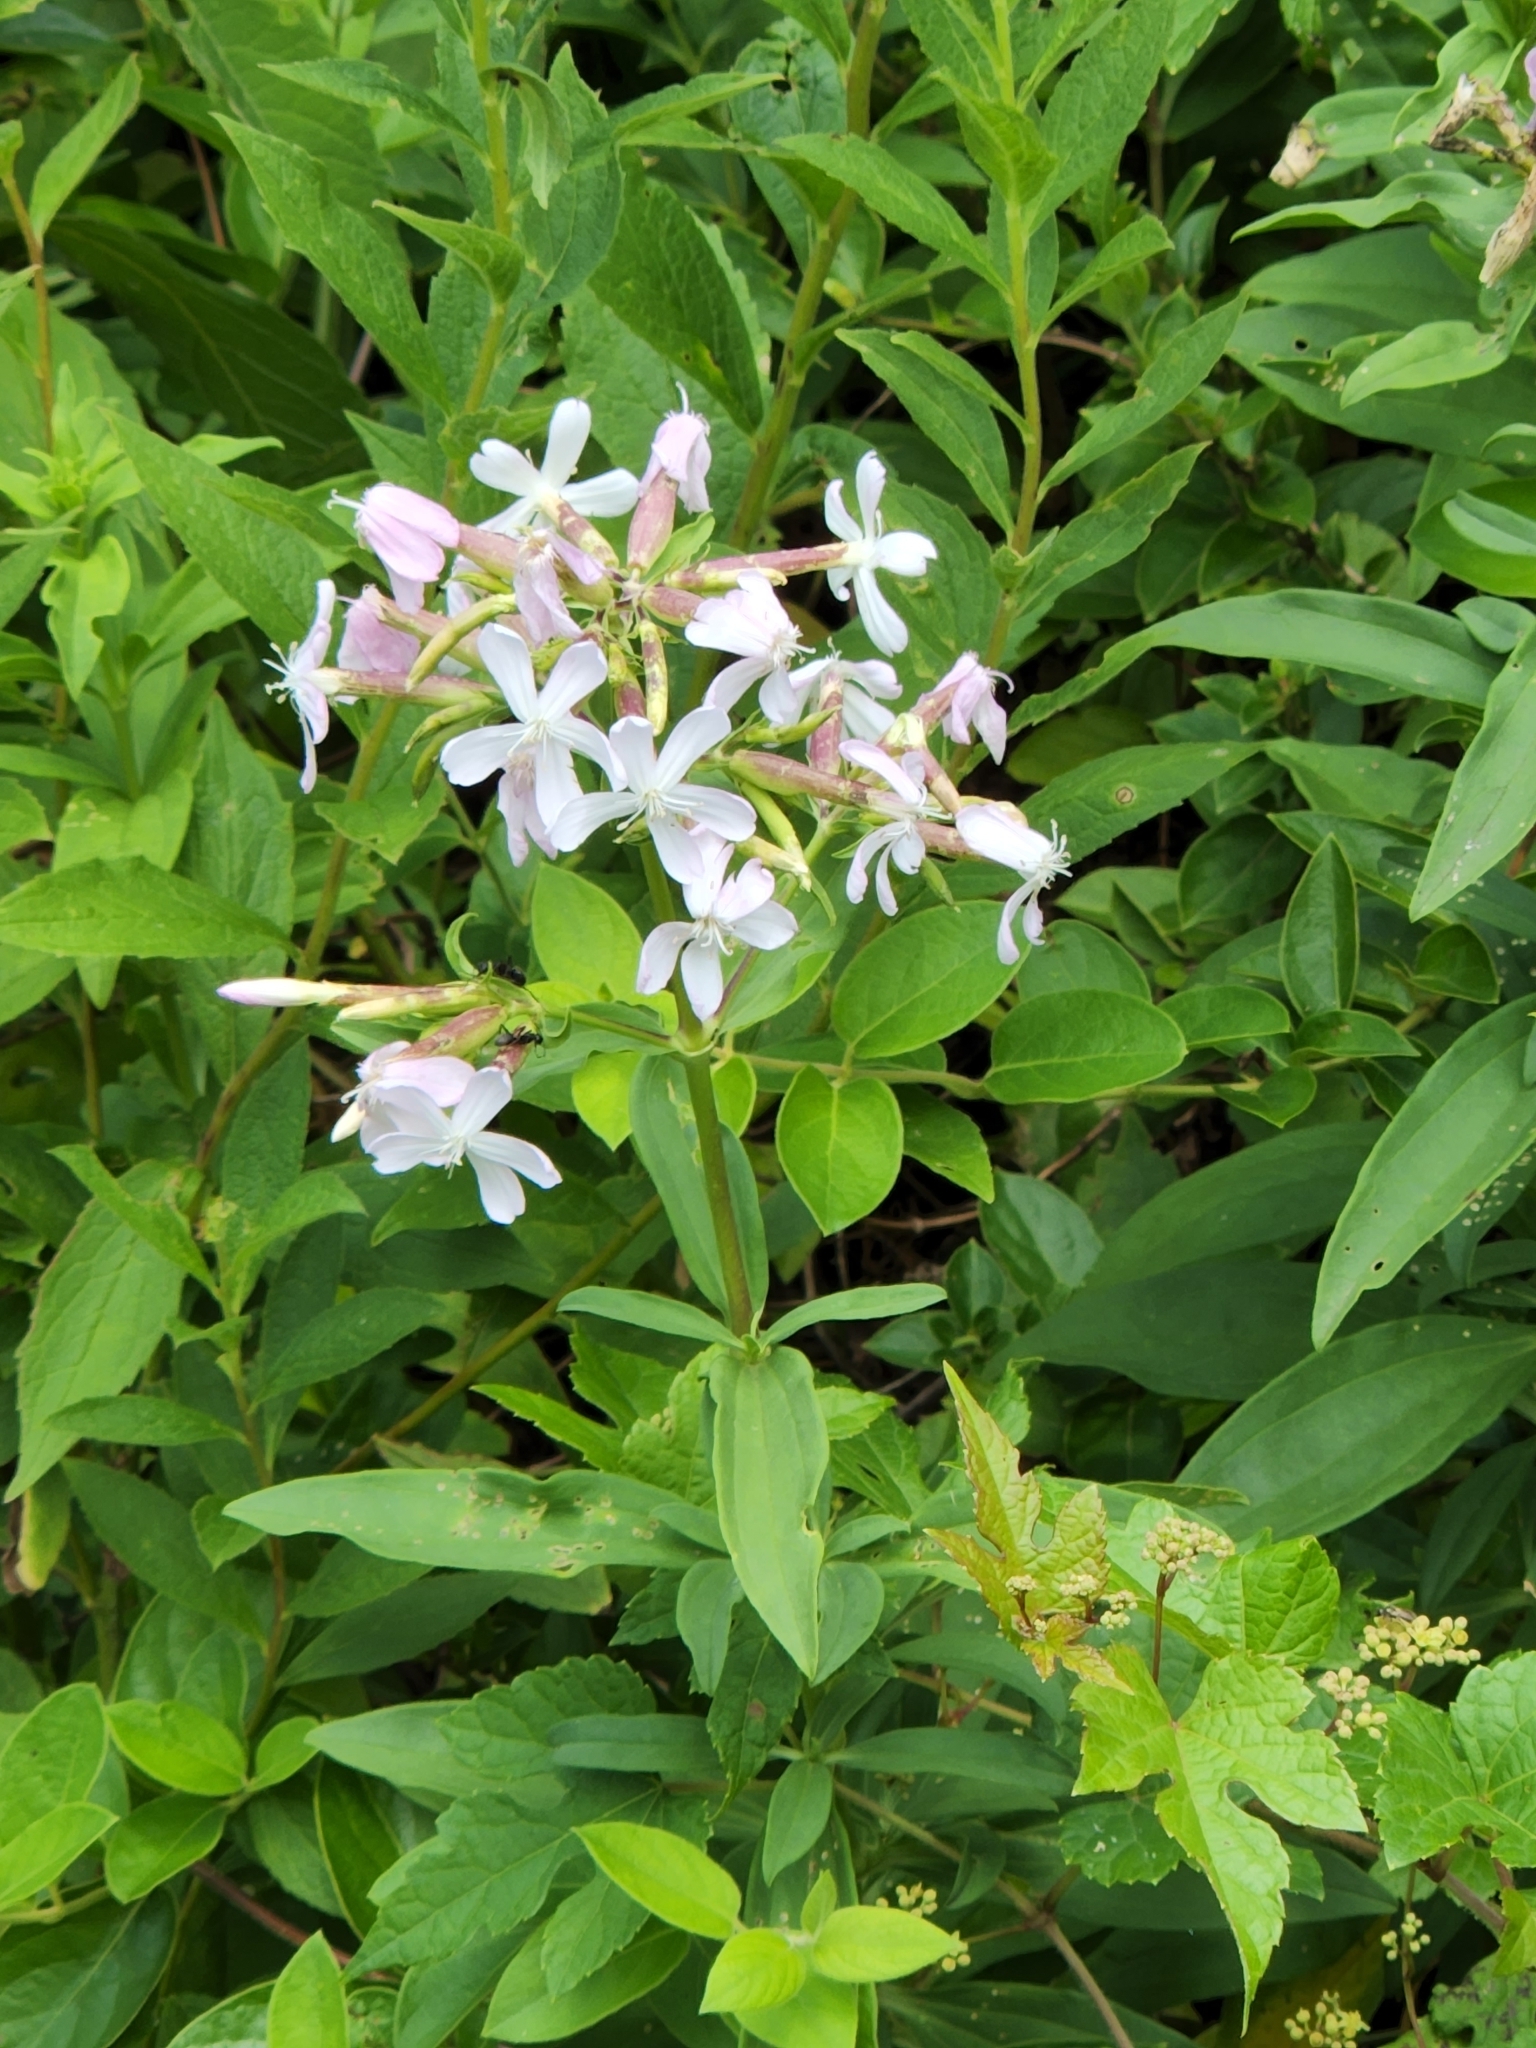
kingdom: Plantae
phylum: Tracheophyta
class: Magnoliopsida
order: Caryophyllales
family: Caryophyllaceae
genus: Saponaria
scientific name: Saponaria officinalis
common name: Soapwort
